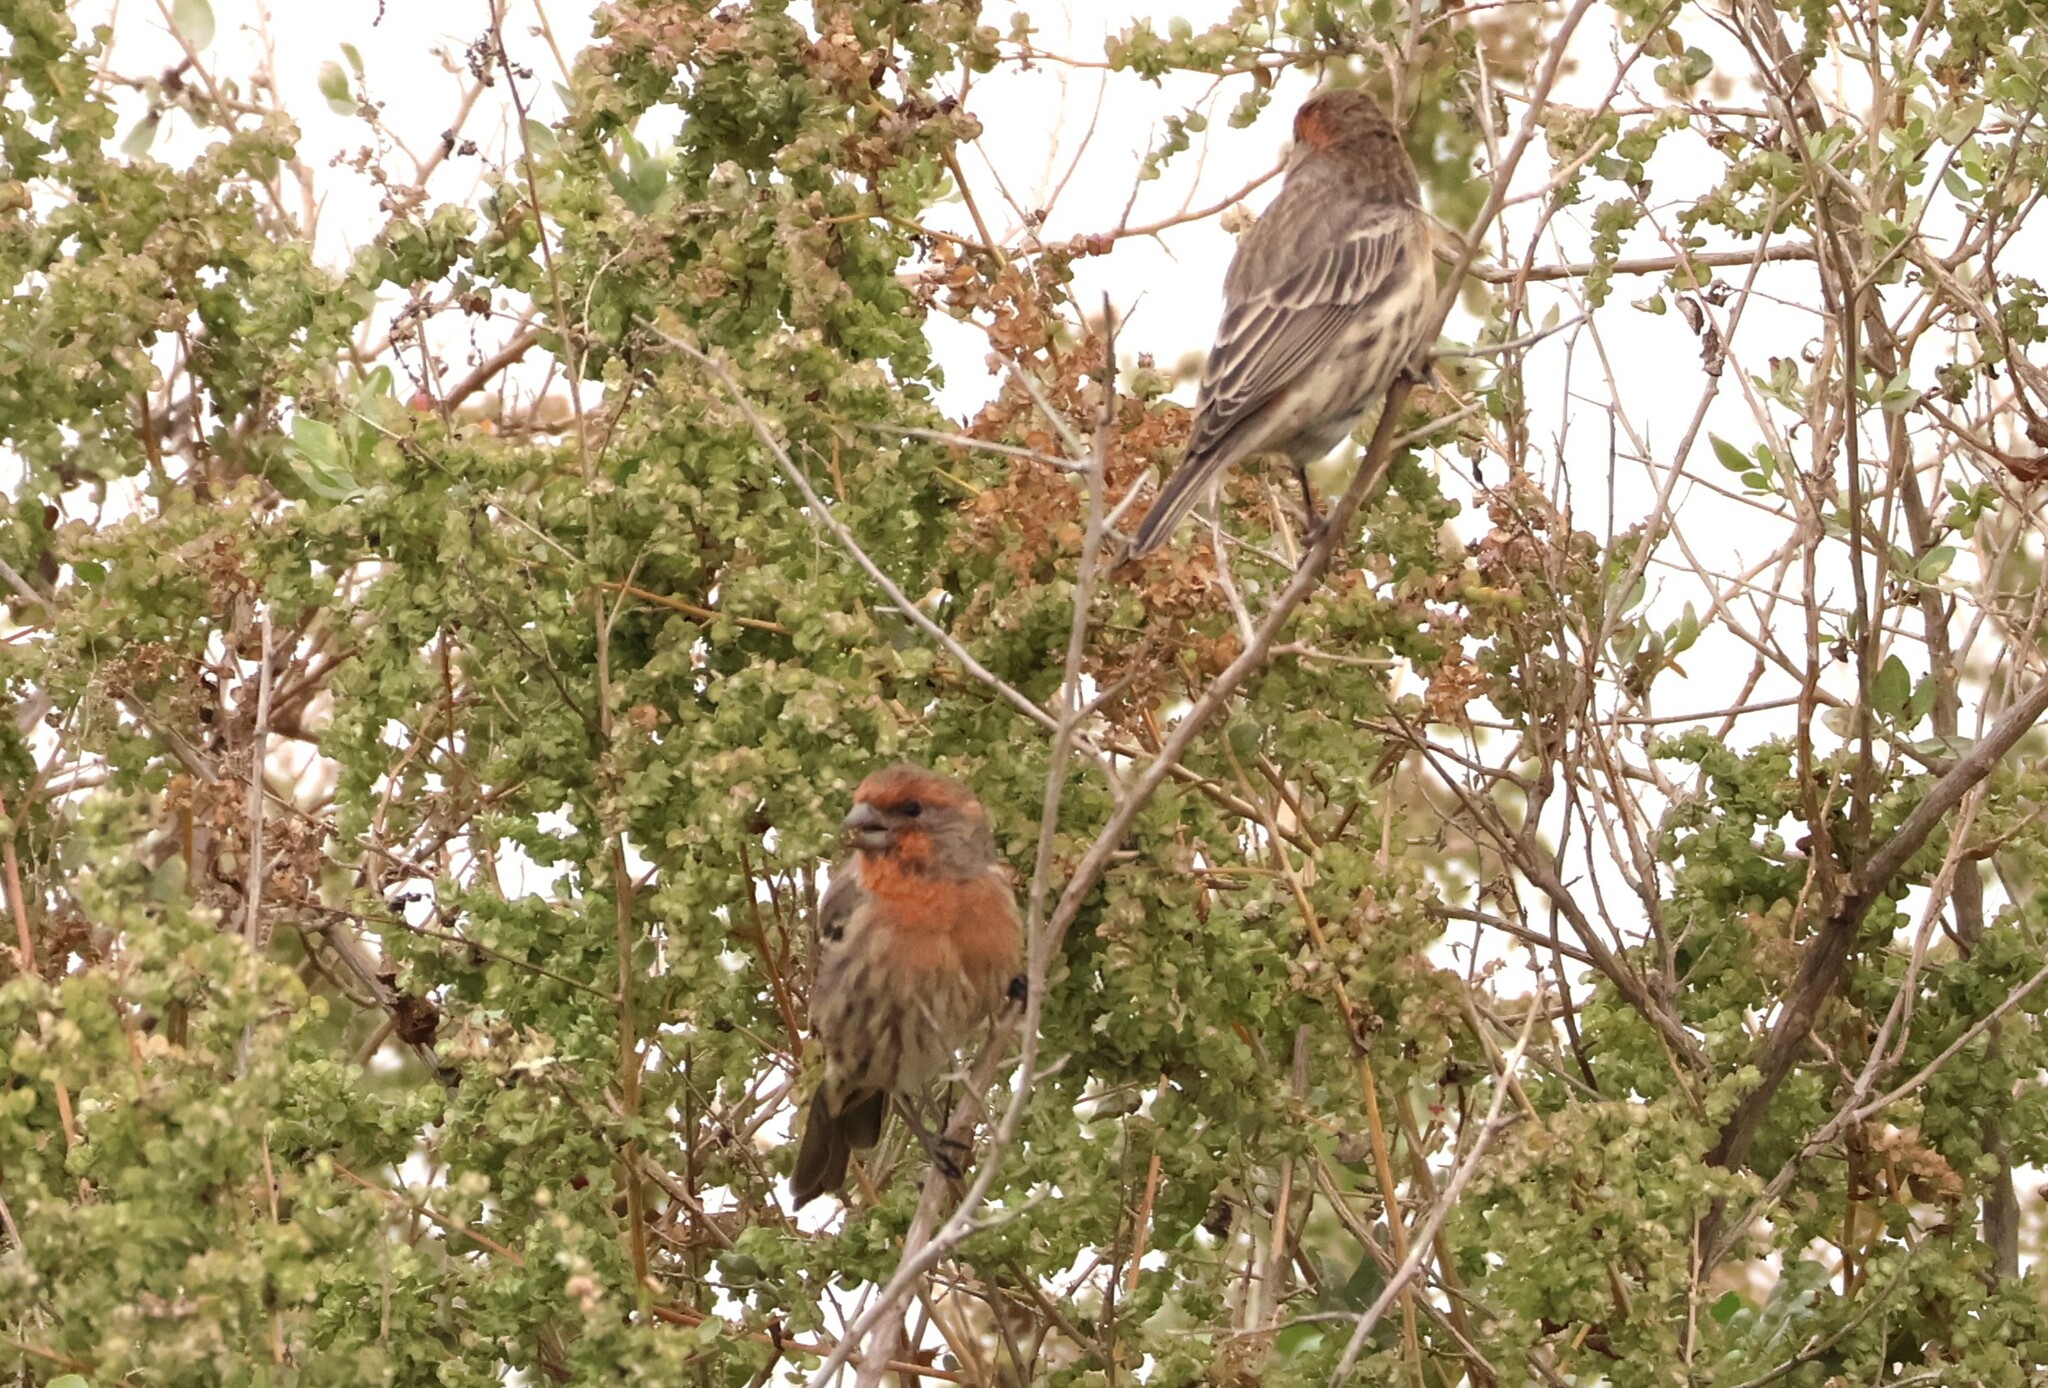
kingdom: Animalia
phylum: Chordata
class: Aves
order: Passeriformes
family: Fringillidae
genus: Haemorhous
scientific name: Haemorhous mexicanus
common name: House finch
